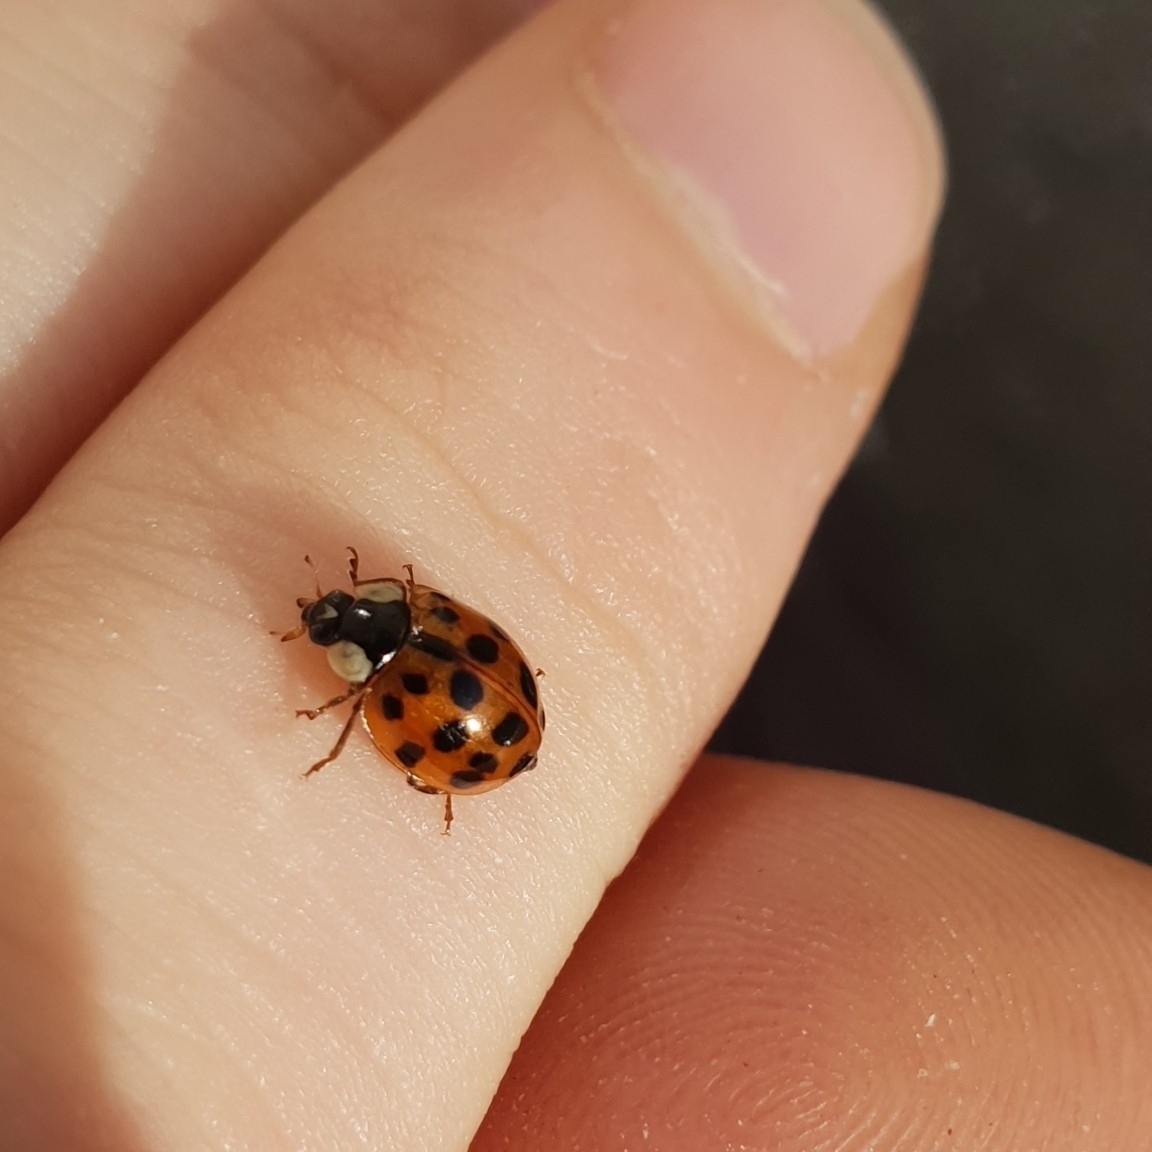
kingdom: Animalia
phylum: Arthropoda
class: Insecta
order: Coleoptera
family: Coccinellidae
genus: Harmonia
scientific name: Harmonia axyridis
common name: Harlequin ladybird
